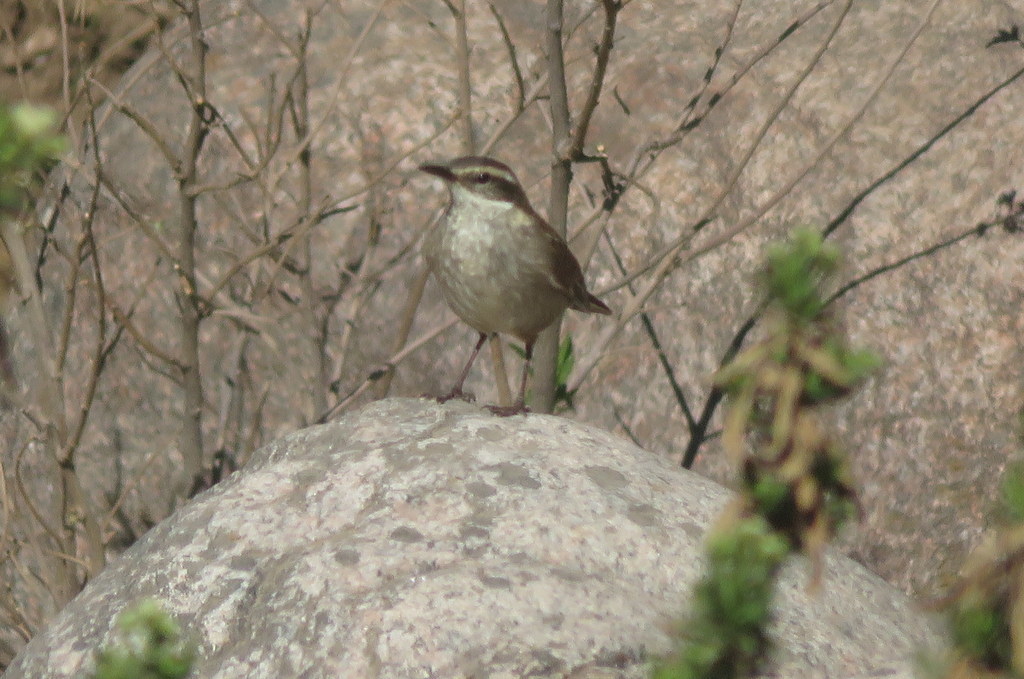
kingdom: Animalia
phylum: Chordata
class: Aves
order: Passeriformes
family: Furnariidae
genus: Cinclodes
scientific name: Cinclodes fuscus
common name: Buff-winged cinclodes
